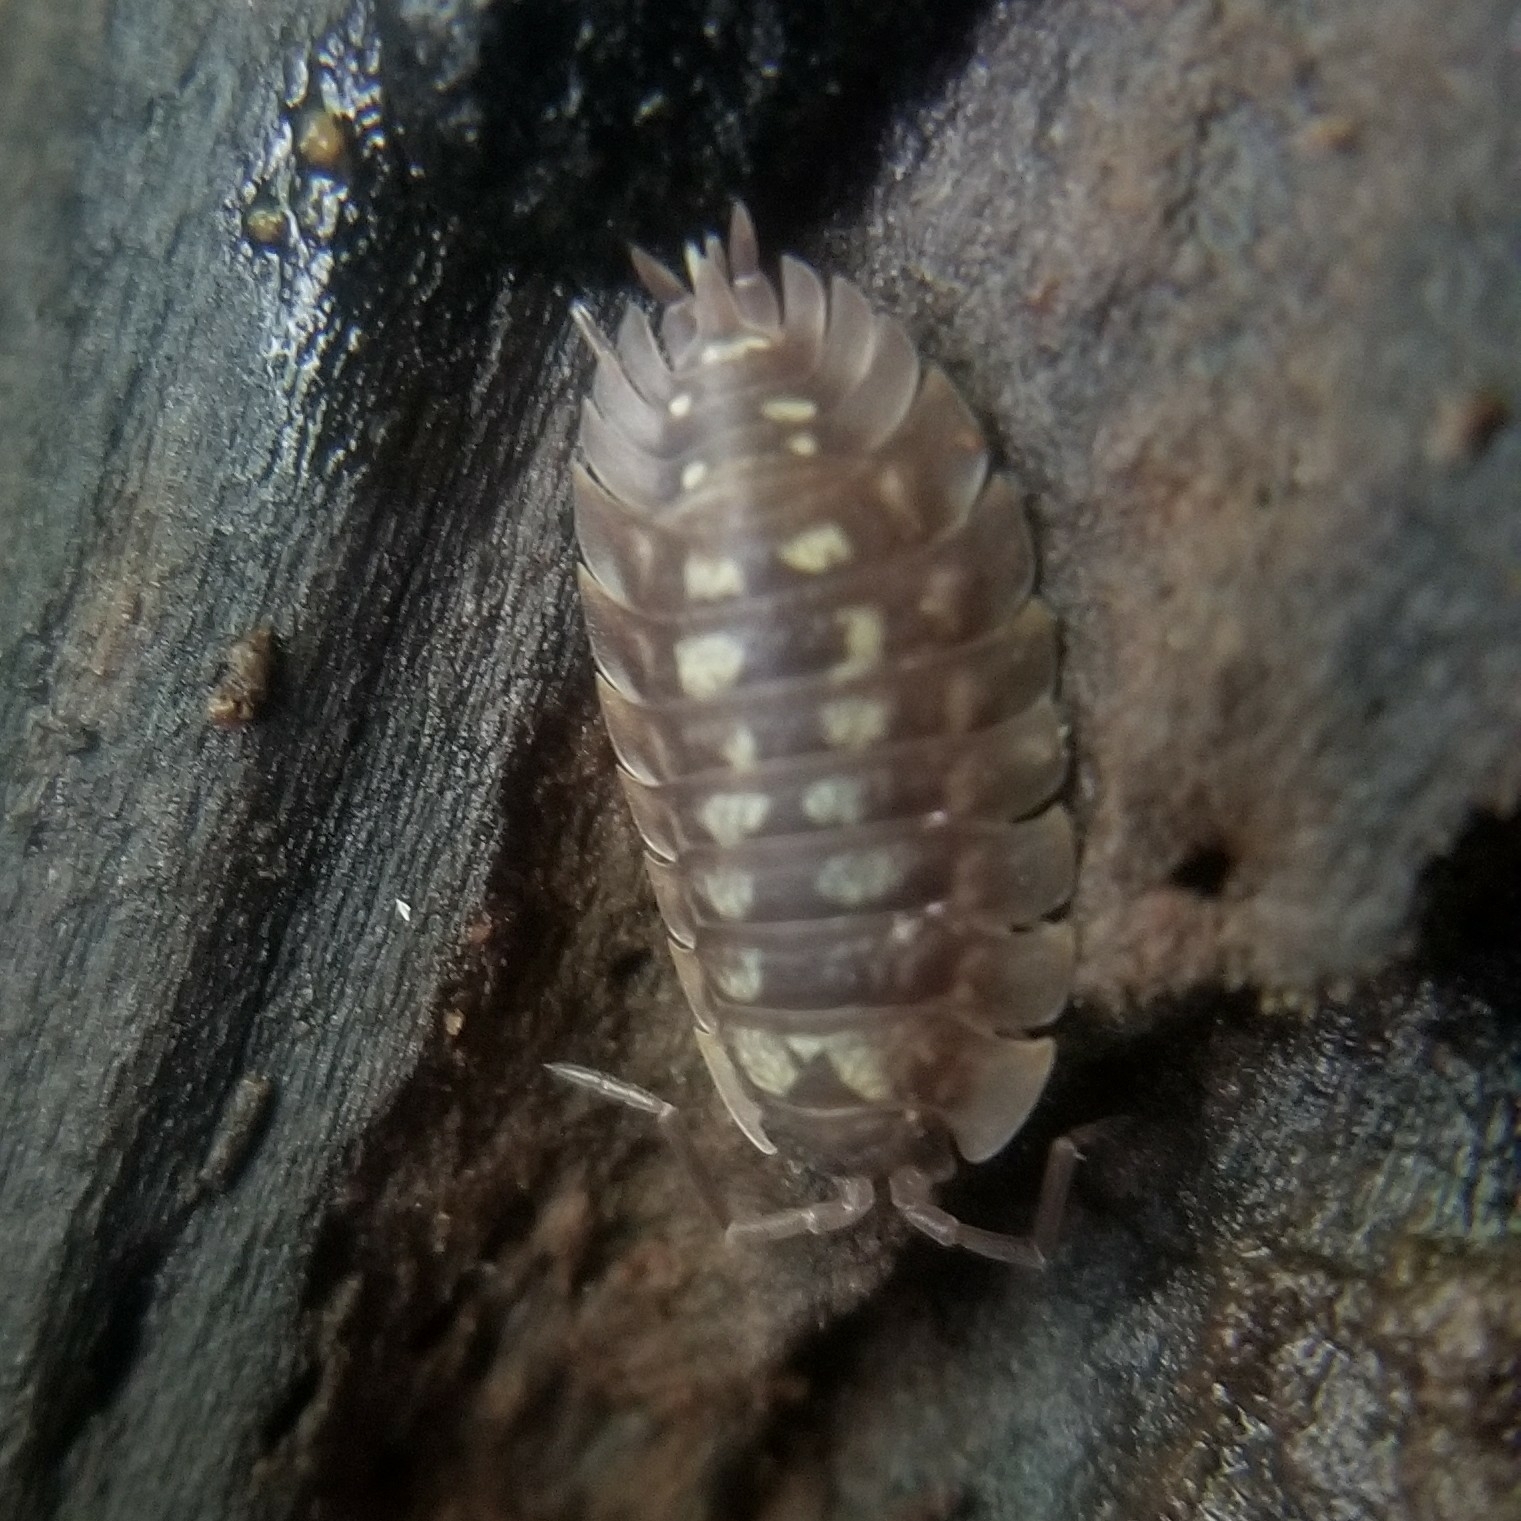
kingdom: Animalia
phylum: Arthropoda
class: Malacostraca
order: Isopoda
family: Oniscidae
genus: Oniscus
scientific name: Oniscus asellus
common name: Common shiny woodlouse
